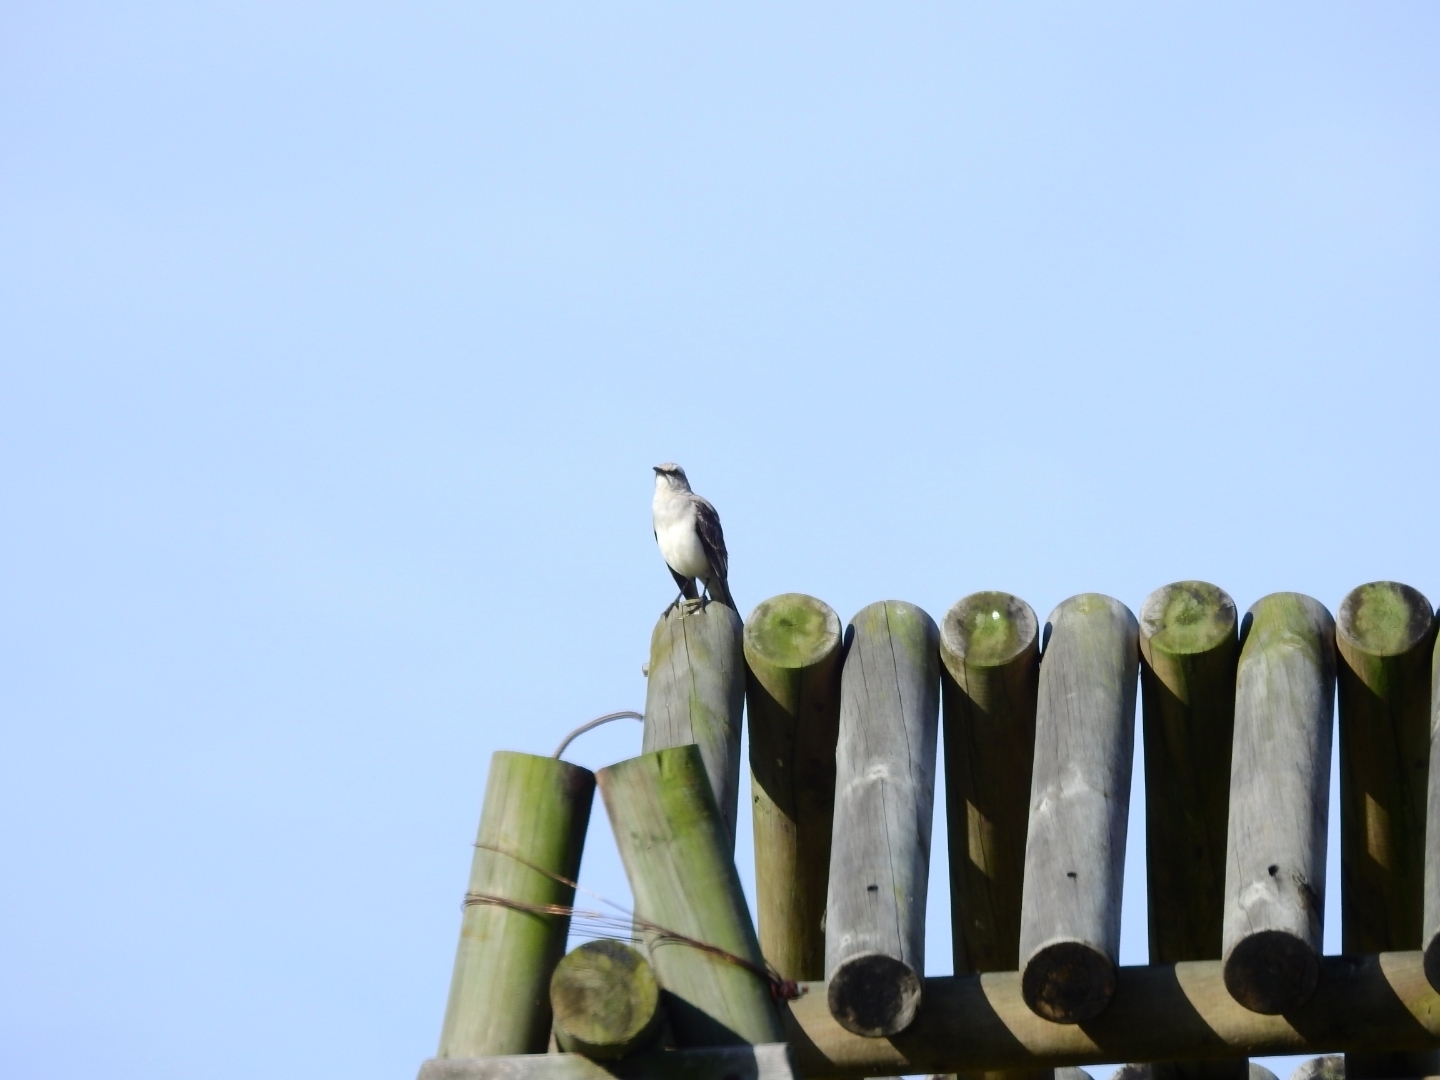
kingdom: Animalia
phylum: Chordata
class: Aves
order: Passeriformes
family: Mimidae
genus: Mimus
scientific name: Mimus gilvus
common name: Tropical mockingbird
